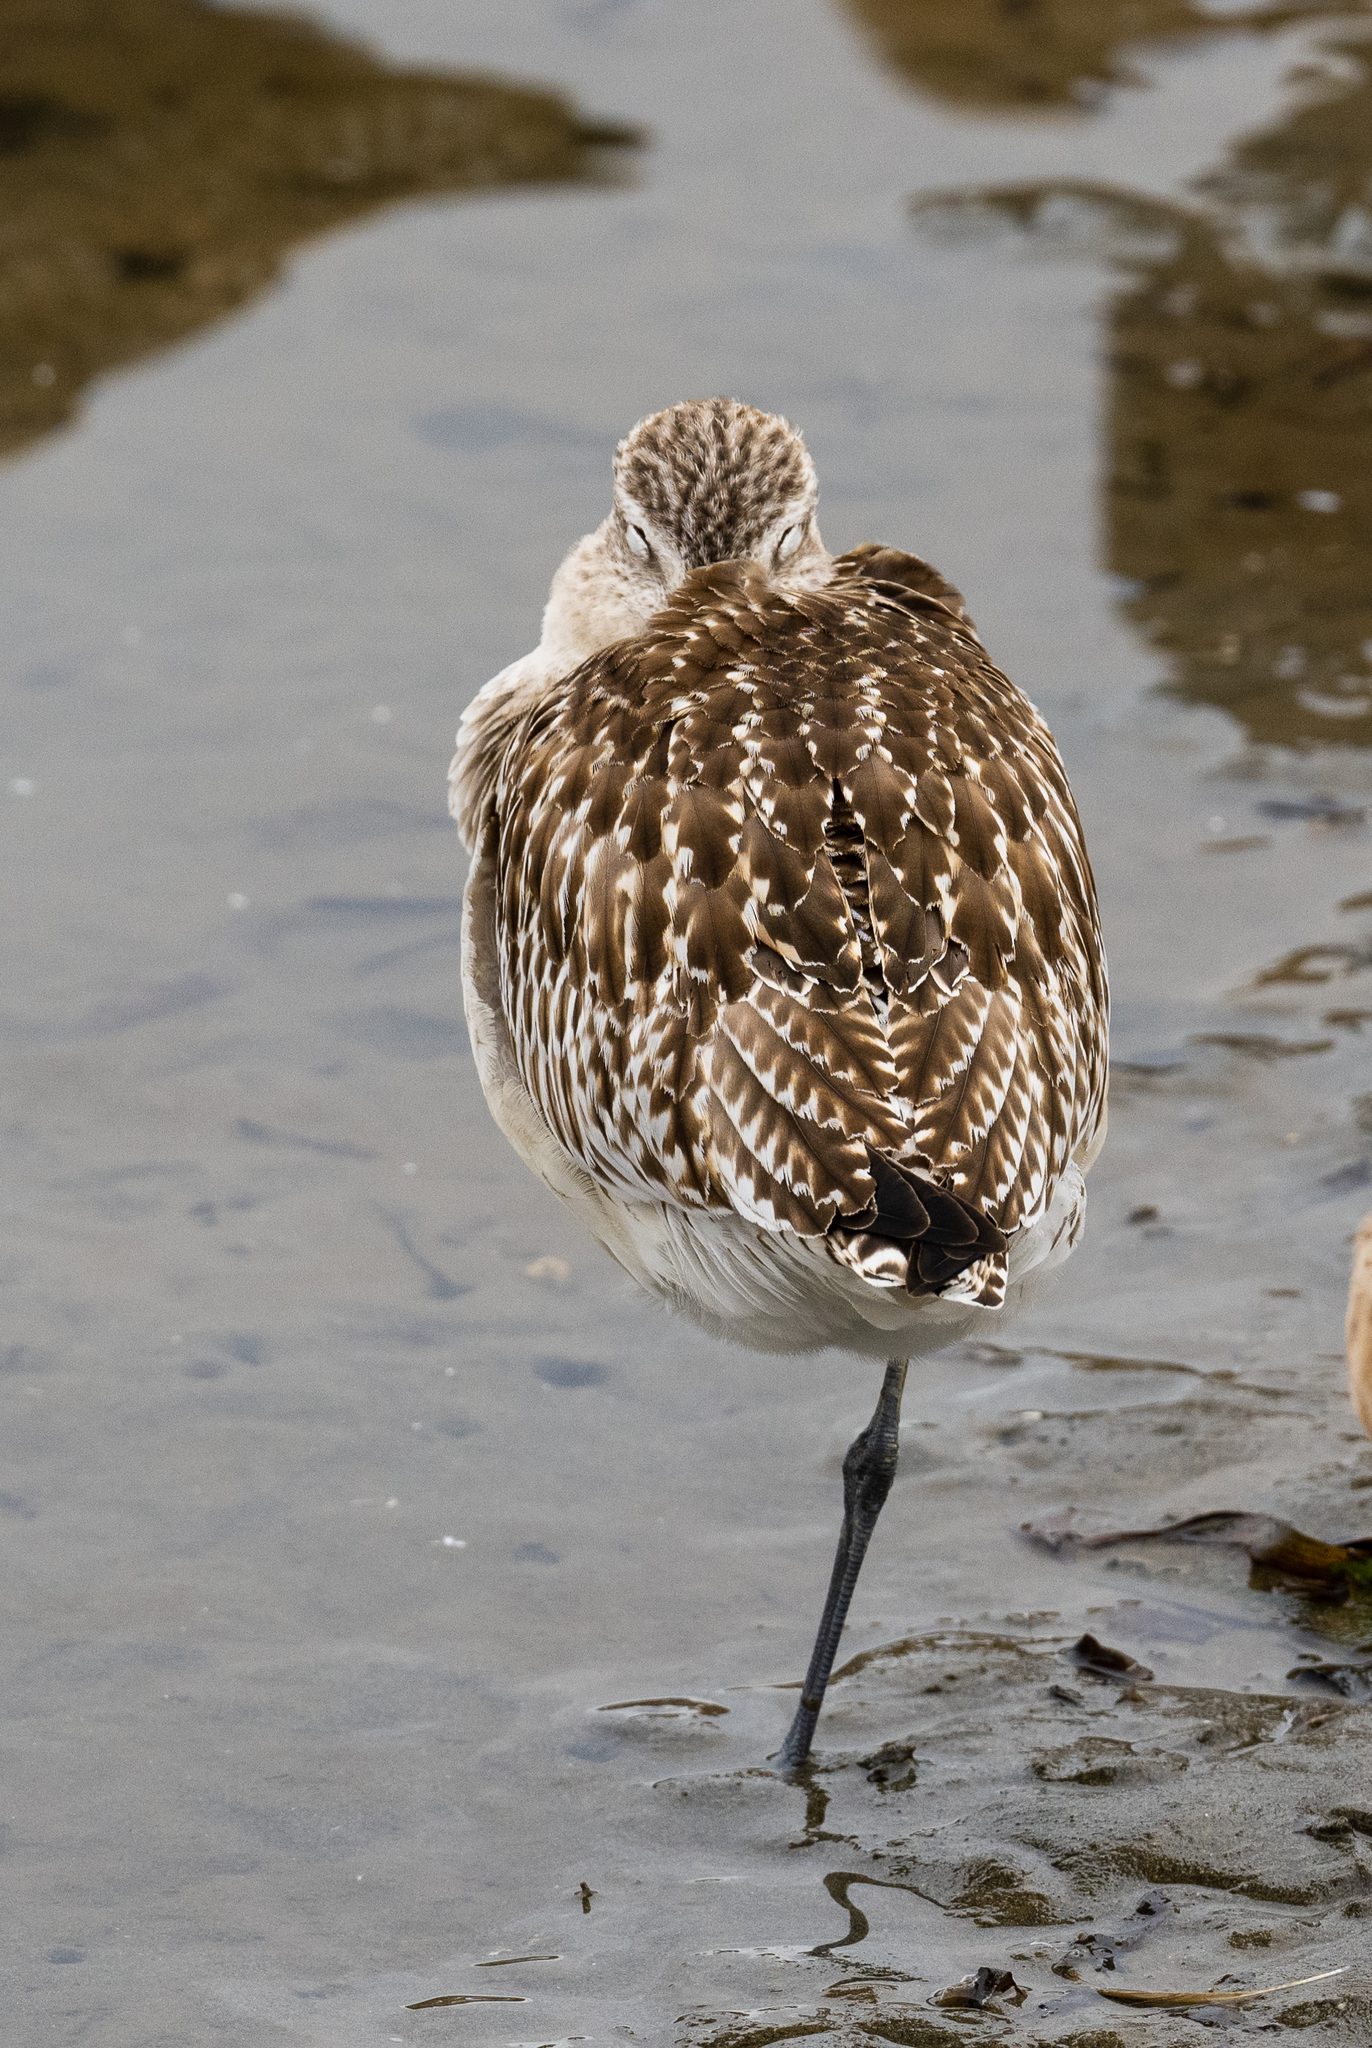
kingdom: Animalia
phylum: Chordata
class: Aves
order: Charadriiformes
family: Scolopacidae
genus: Limosa
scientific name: Limosa lapponica
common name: Bar-tailed godwit
